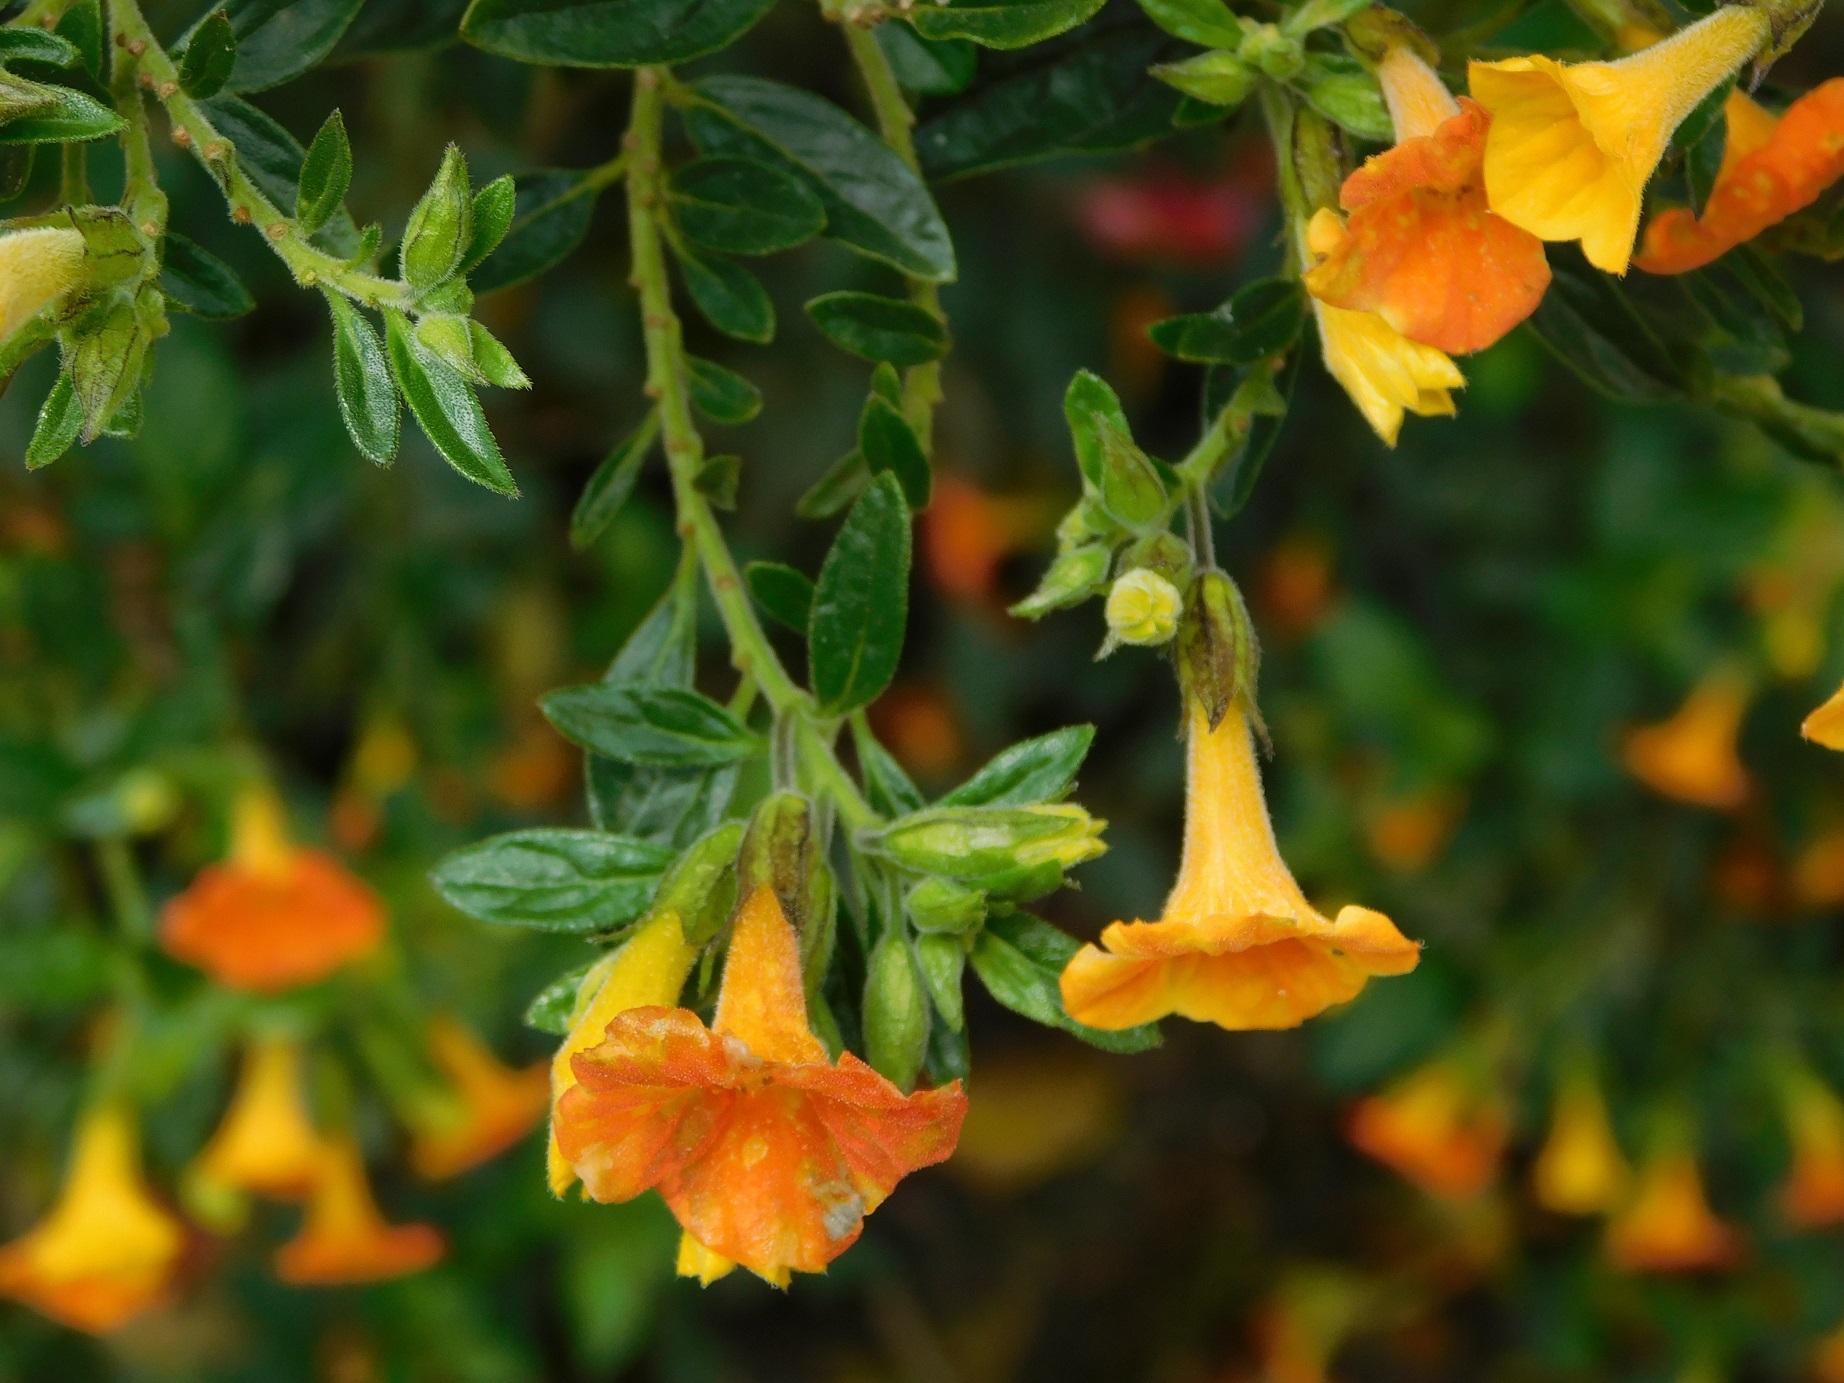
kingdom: Plantae
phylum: Tracheophyta
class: Magnoliopsida
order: Solanales
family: Solanaceae
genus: Streptosolen
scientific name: Streptosolen jamesonii
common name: Marmalade bush
